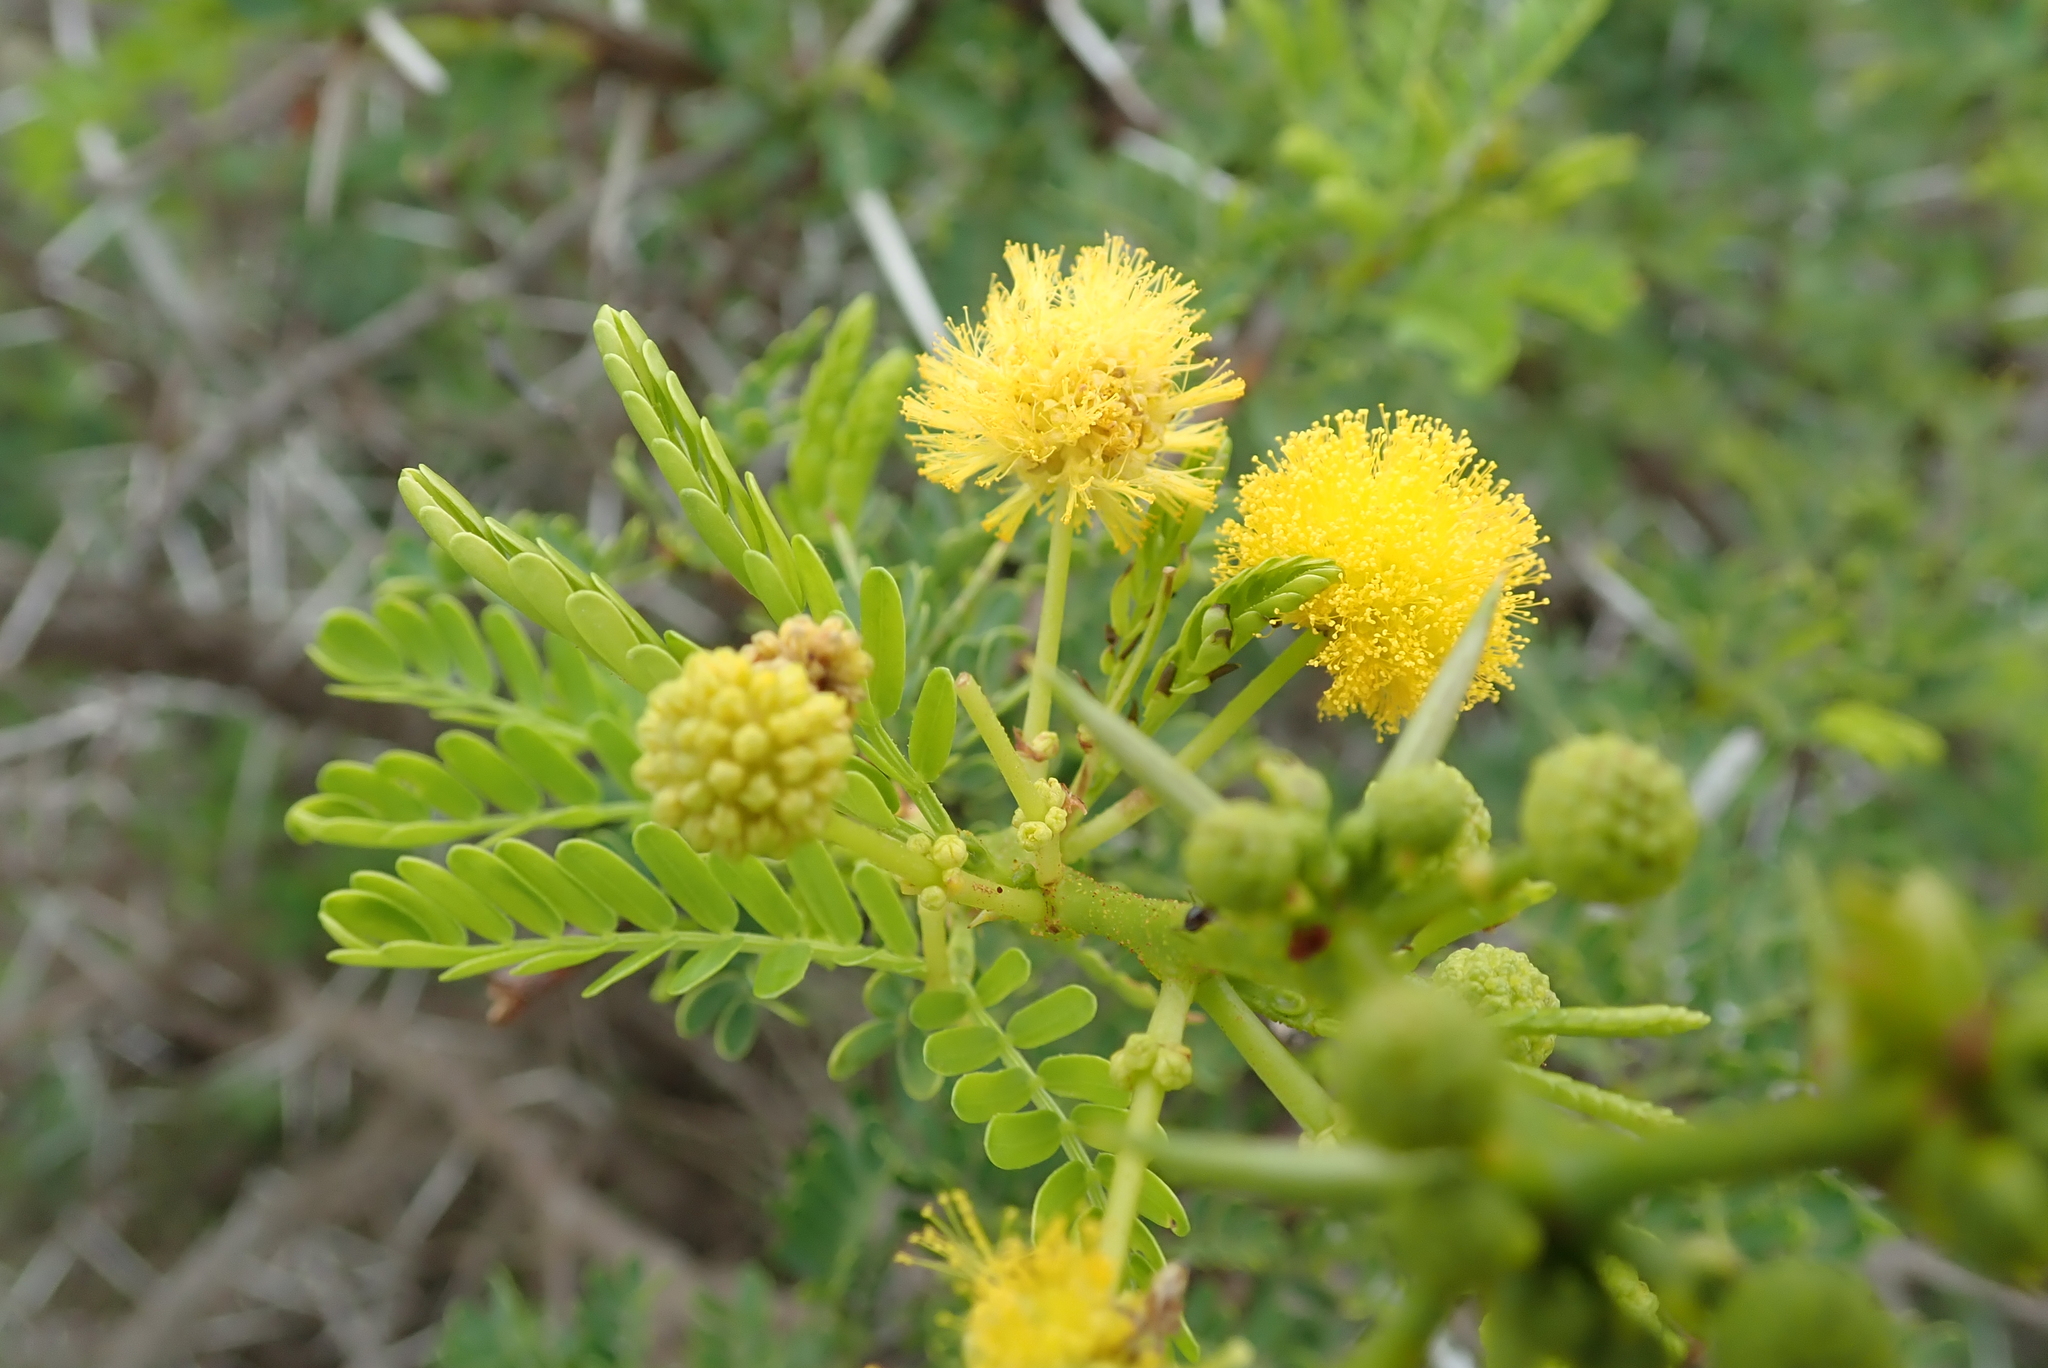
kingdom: Plantae
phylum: Tracheophyta
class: Magnoliopsida
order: Fabales
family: Fabaceae
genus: Vachellia
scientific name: Vachellia karroo
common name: Sweet thorn
